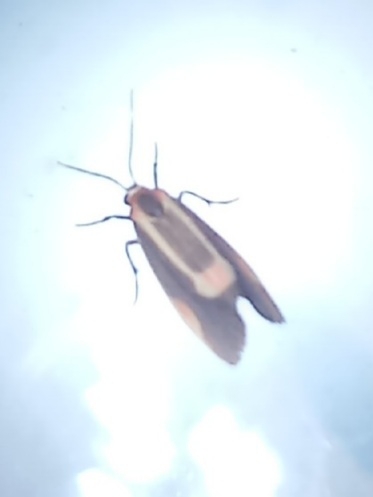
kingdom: Animalia
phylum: Arthropoda
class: Insecta
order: Lepidoptera
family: Erebidae
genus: Cisthene
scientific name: Cisthene packardii
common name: Packard's lichen moth
